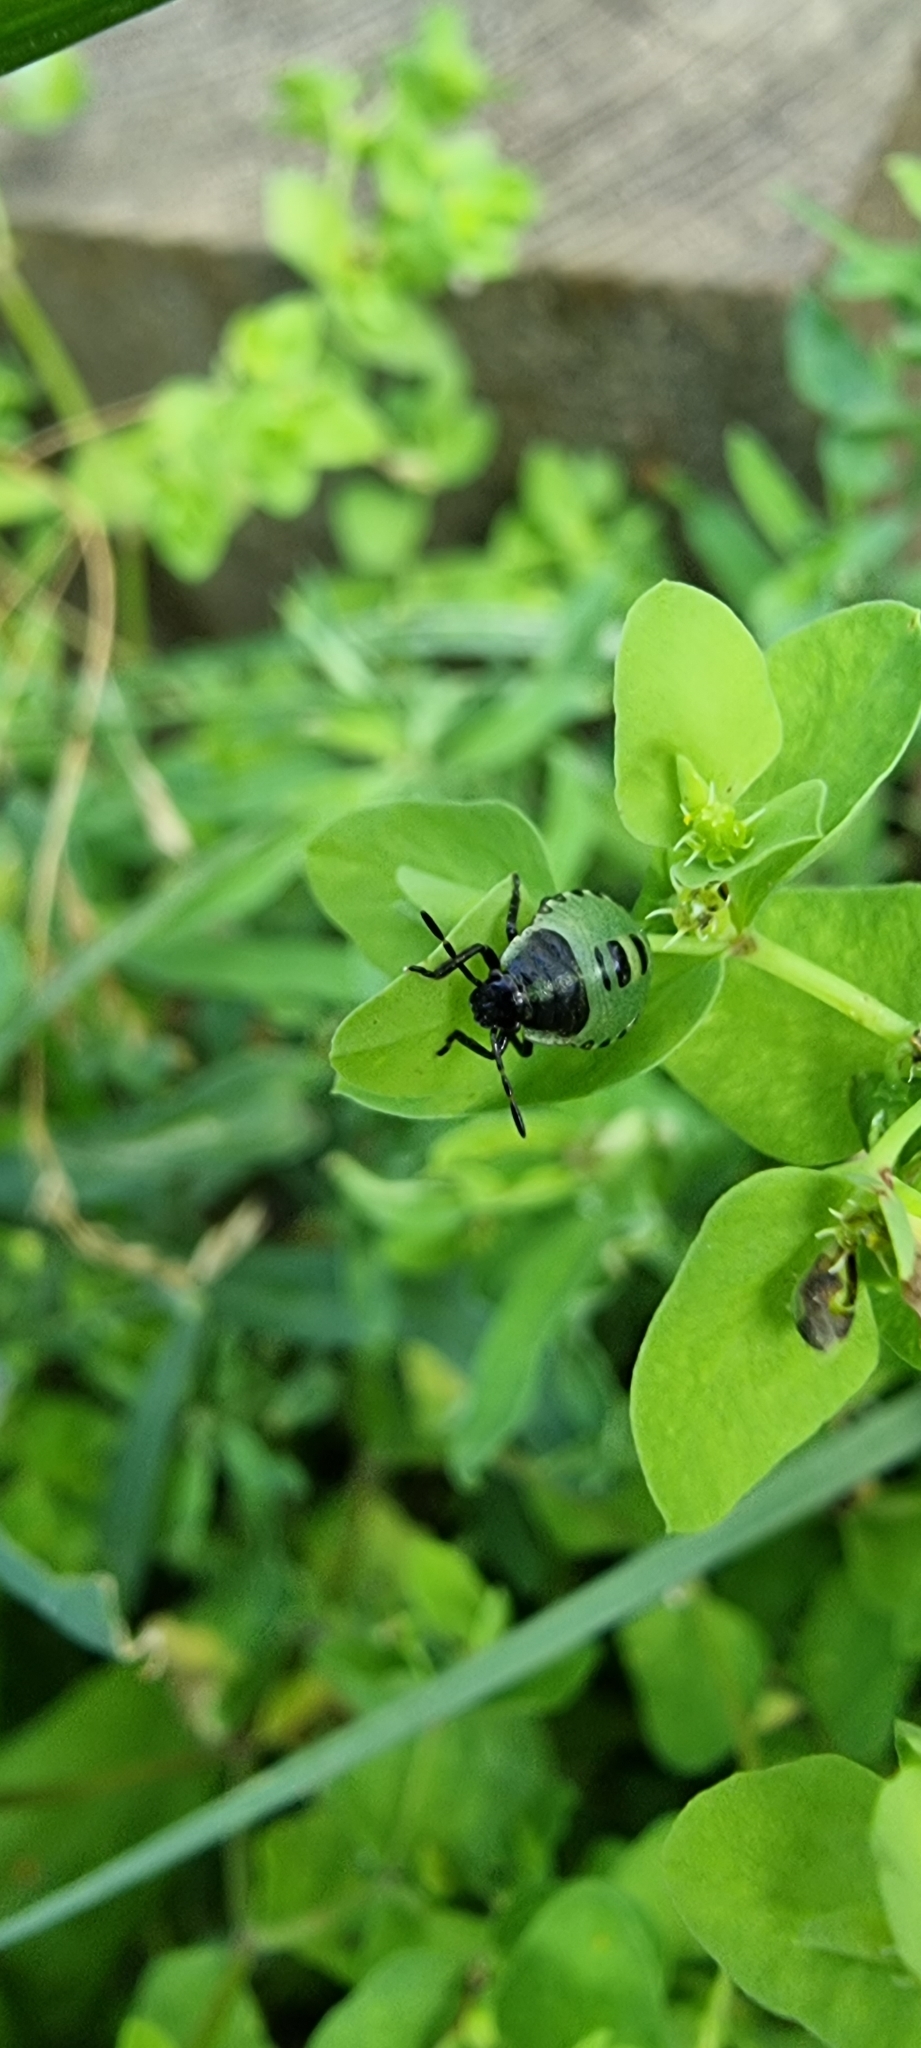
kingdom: Animalia
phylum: Arthropoda
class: Insecta
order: Hemiptera
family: Pentatomidae
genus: Palomena
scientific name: Palomena prasina
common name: Green shieldbug
